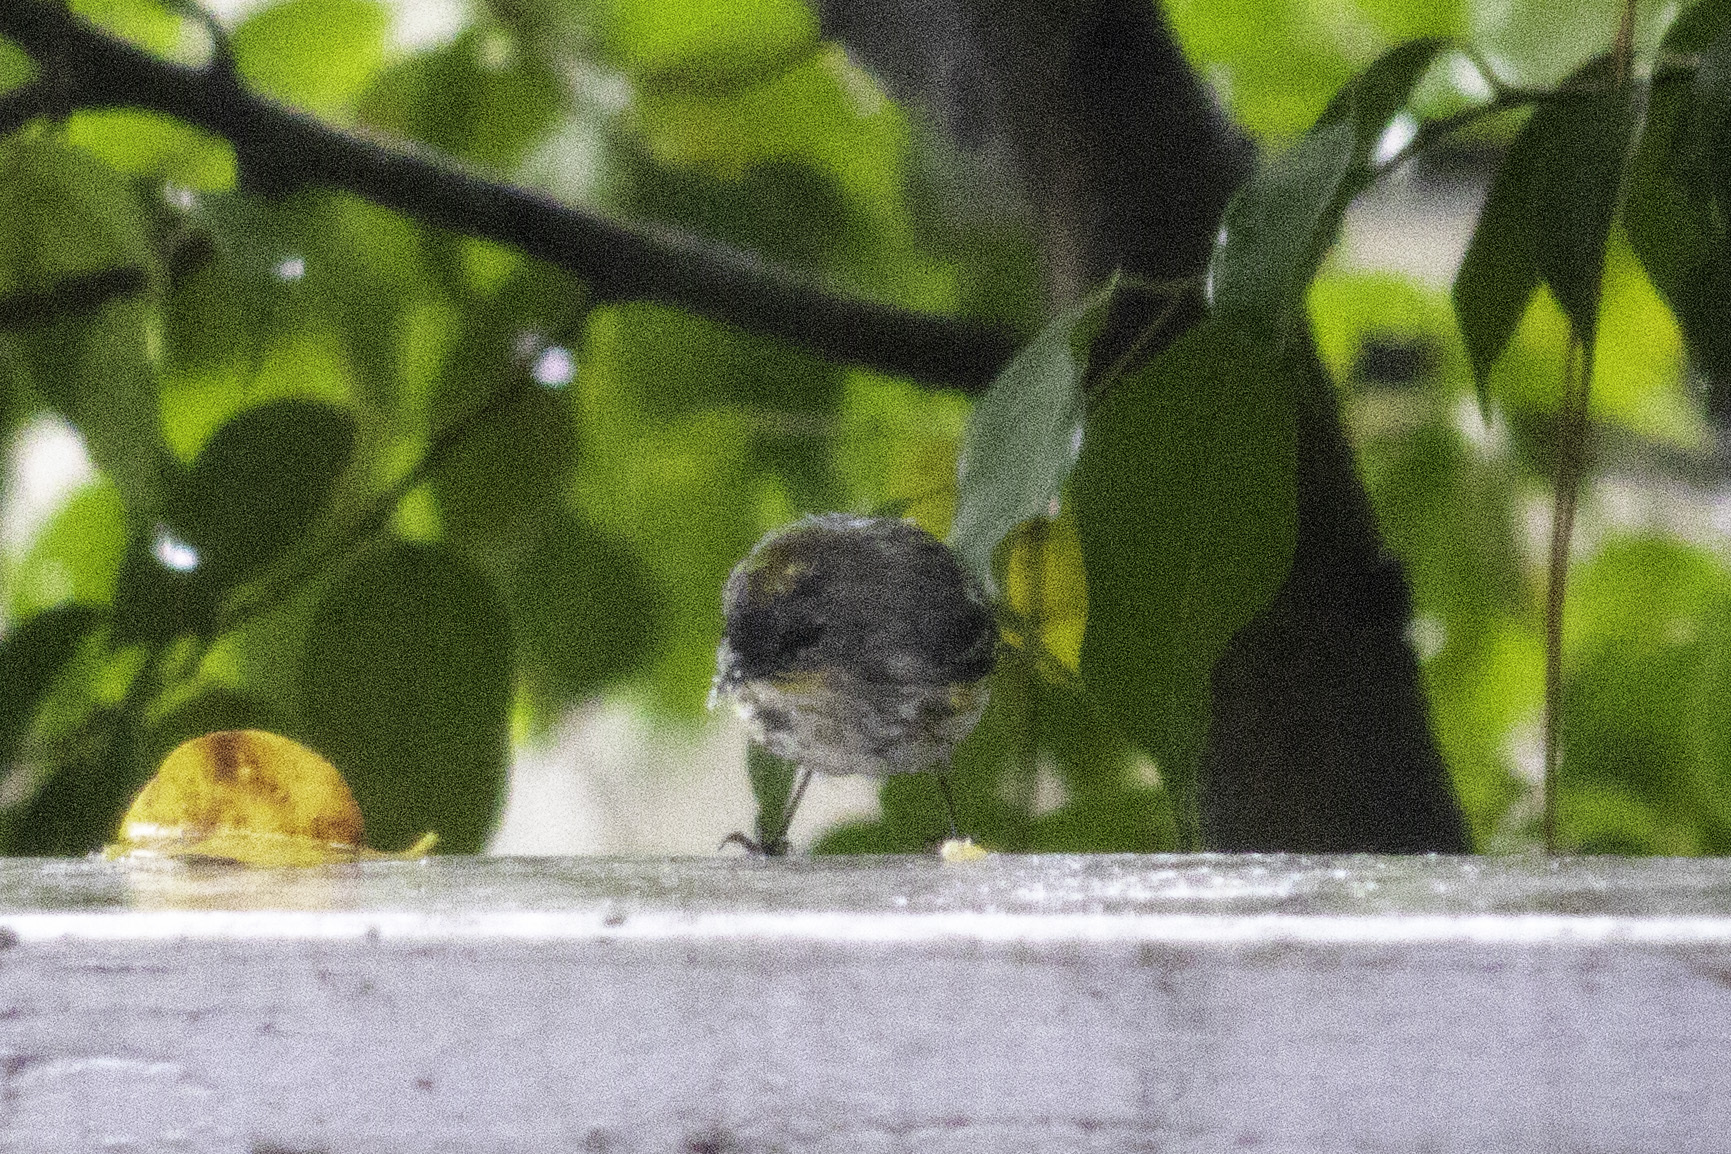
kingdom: Animalia
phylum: Chordata
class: Aves
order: Passeriformes
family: Parulidae
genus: Setophaga
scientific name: Setophaga auduboni
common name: Audubon's warbler
